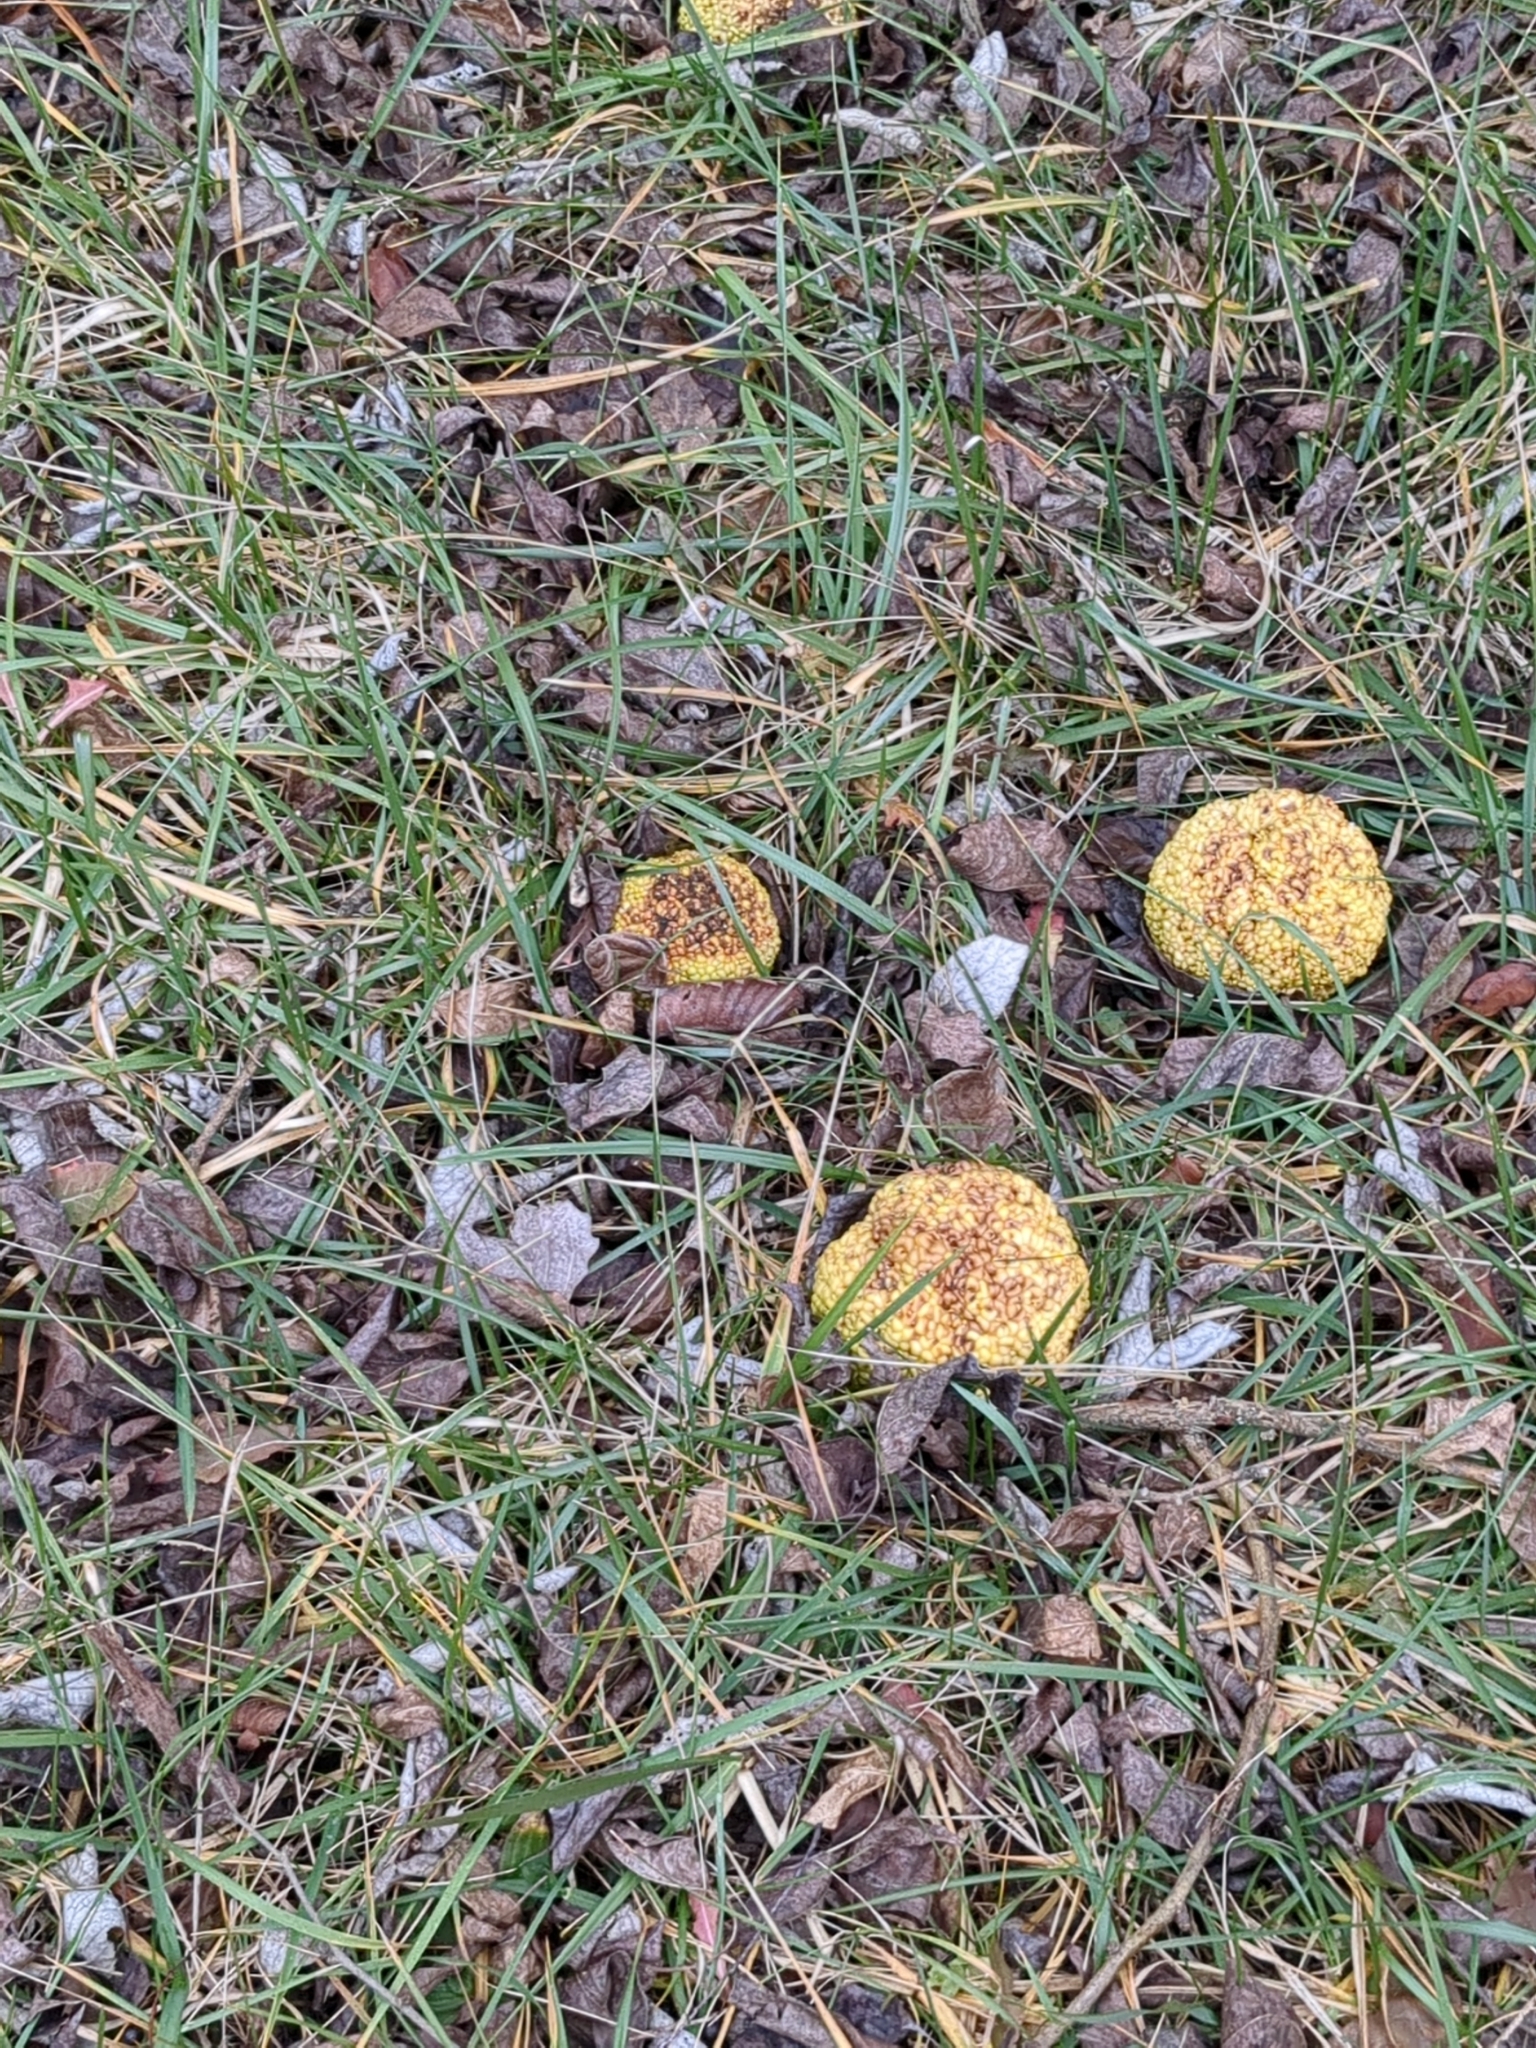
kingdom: Plantae
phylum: Tracheophyta
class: Magnoliopsida
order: Rosales
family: Moraceae
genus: Maclura
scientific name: Maclura pomifera
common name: Osage-orange
